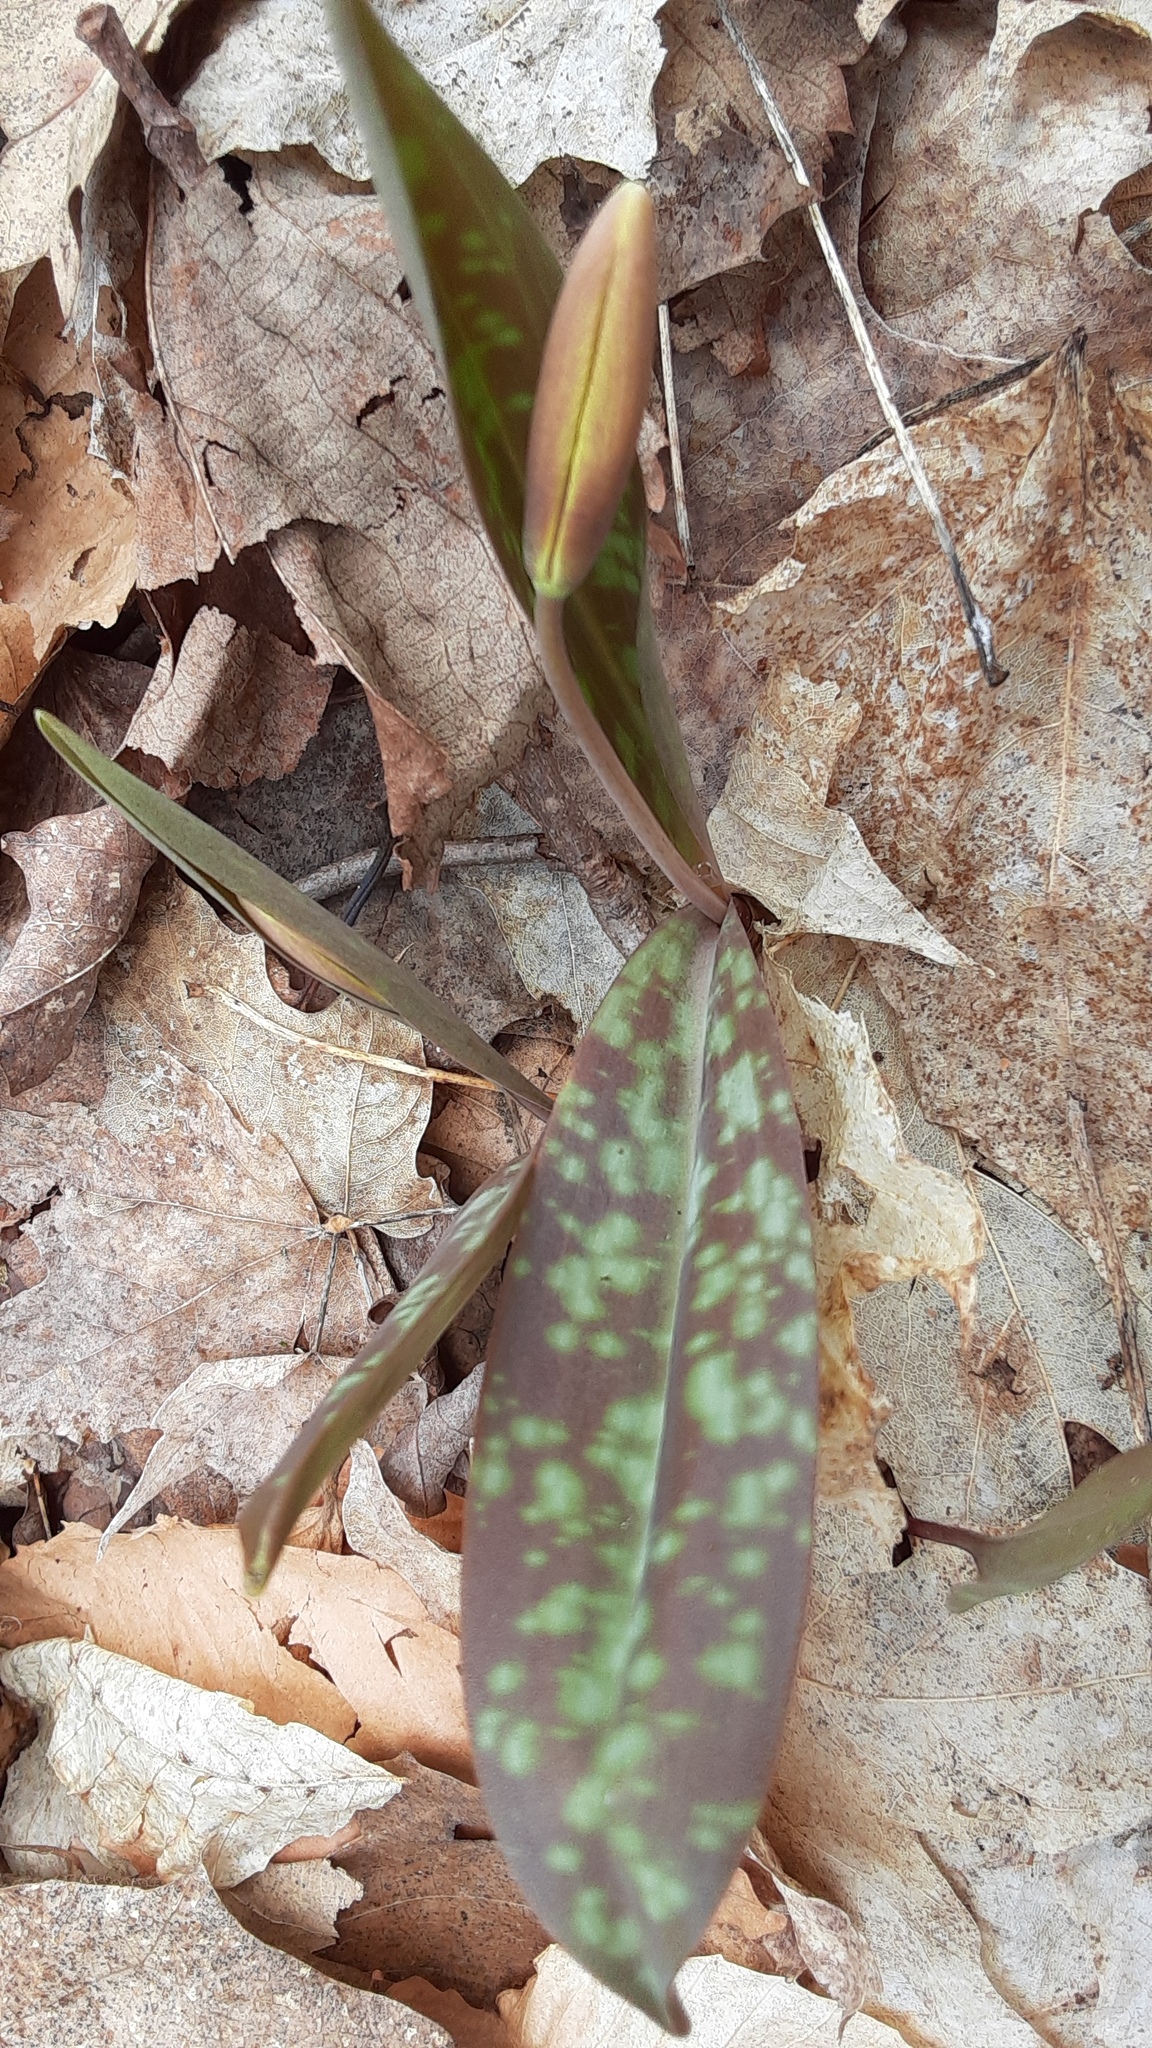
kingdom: Plantae
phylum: Tracheophyta
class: Liliopsida
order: Liliales
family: Liliaceae
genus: Erythronium
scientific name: Erythronium americanum
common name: Yellow adder's-tongue
